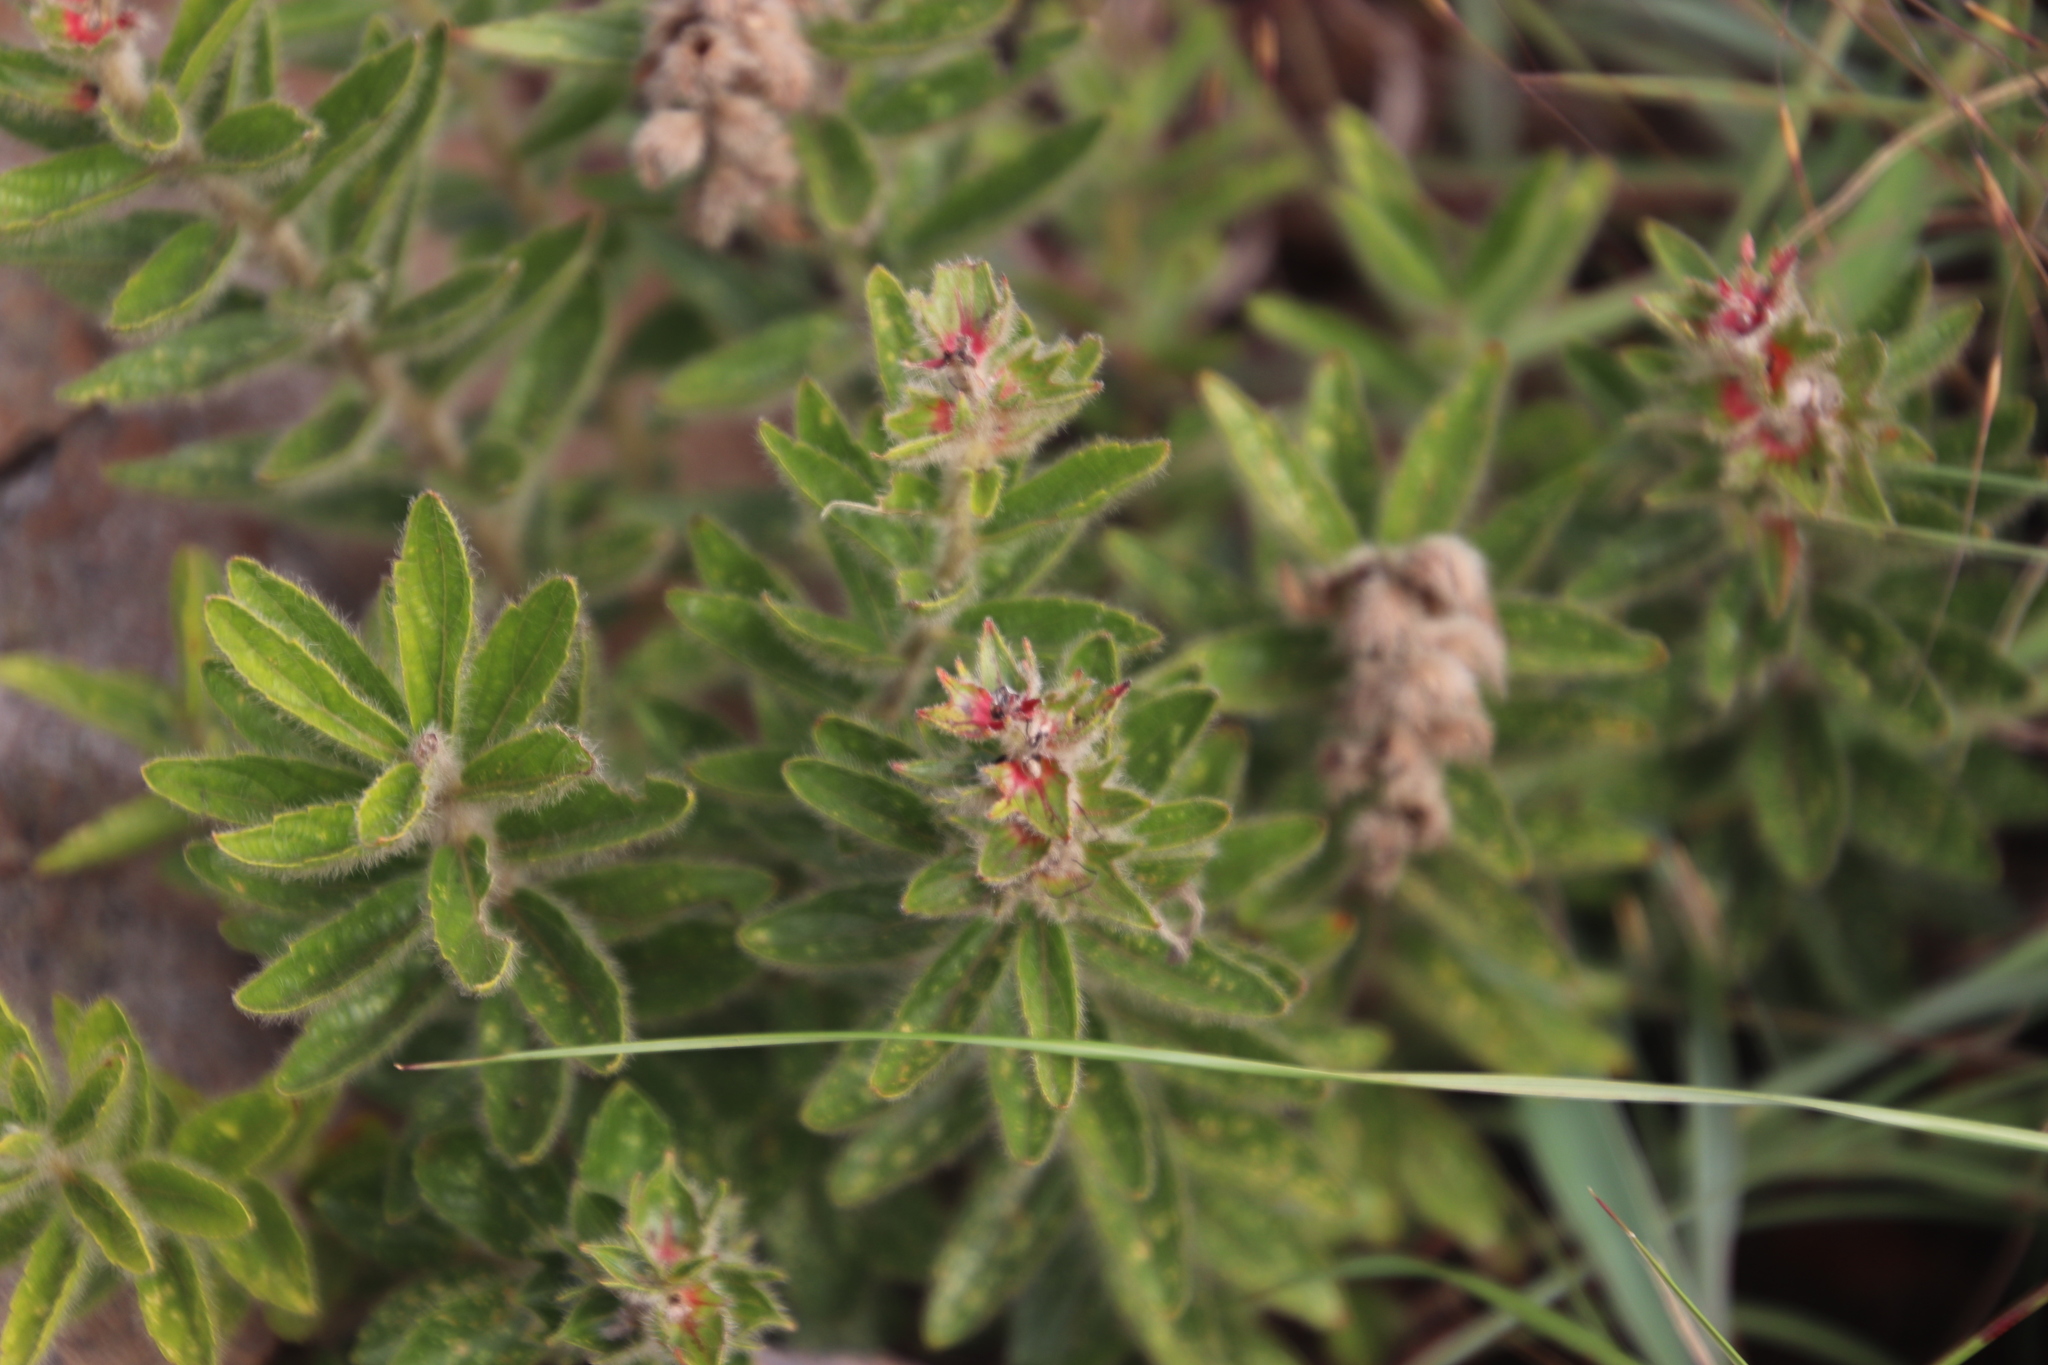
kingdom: Plantae
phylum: Tracheophyta
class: Magnoliopsida
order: Malpighiales
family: Euphorbiaceae
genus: Acalypha
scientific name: Acalypha caperonioides
